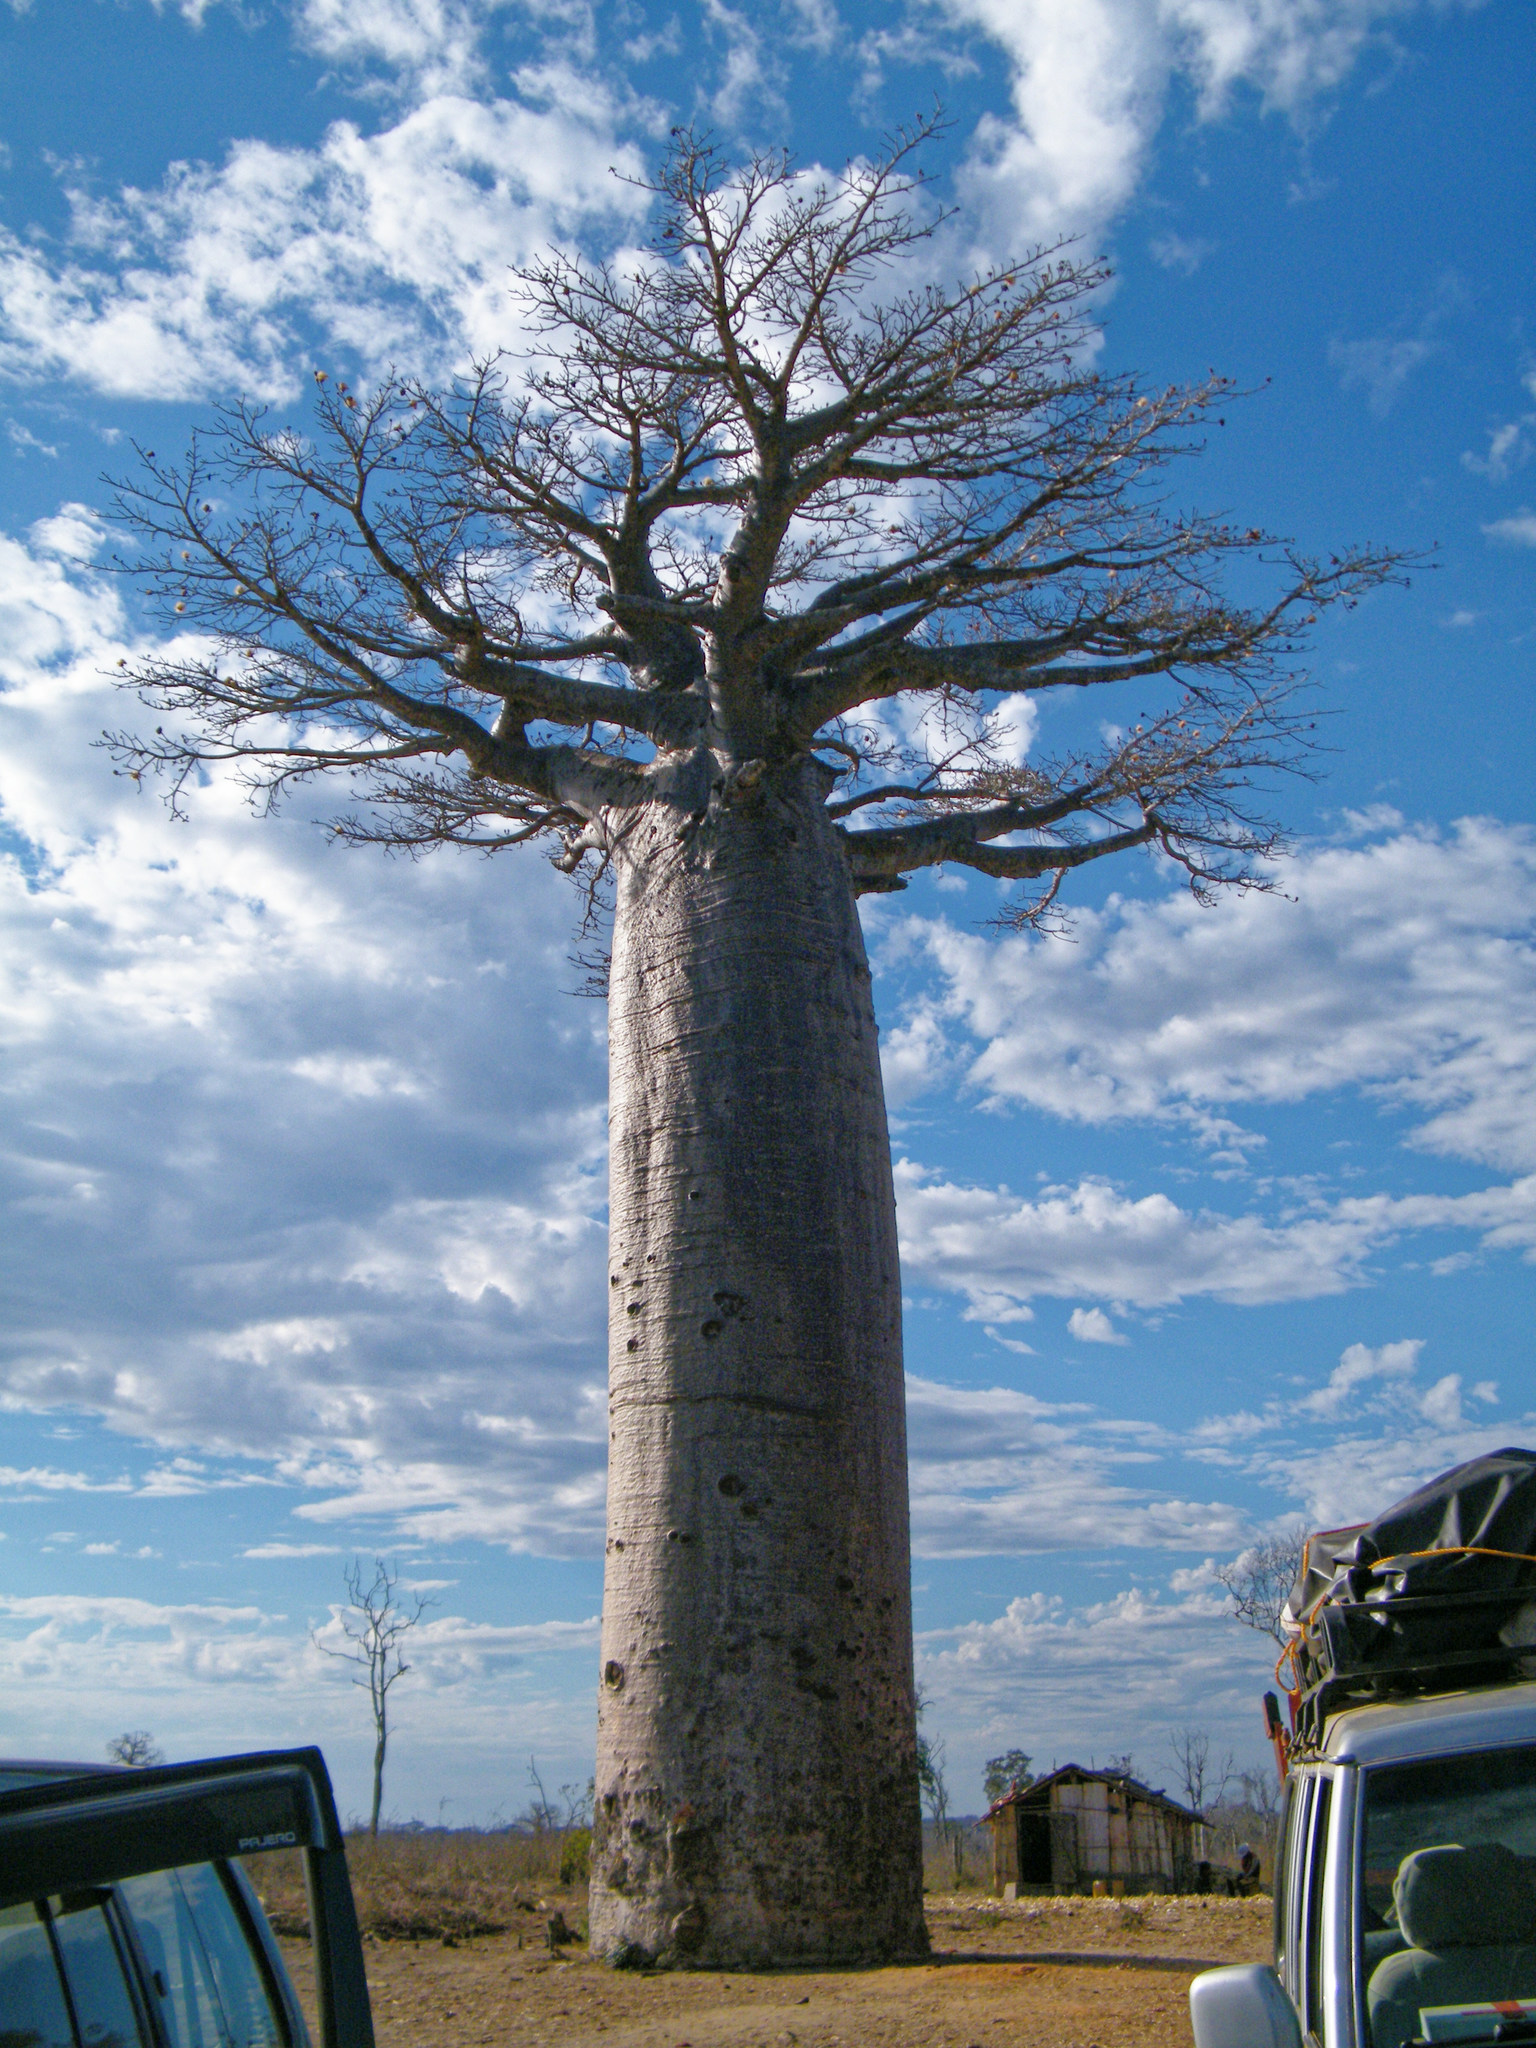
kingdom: Plantae
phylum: Tracheophyta
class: Magnoliopsida
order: Malvales
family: Malvaceae
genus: Adansonia
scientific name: Adansonia grandidieri
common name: Grandidier's baobab
